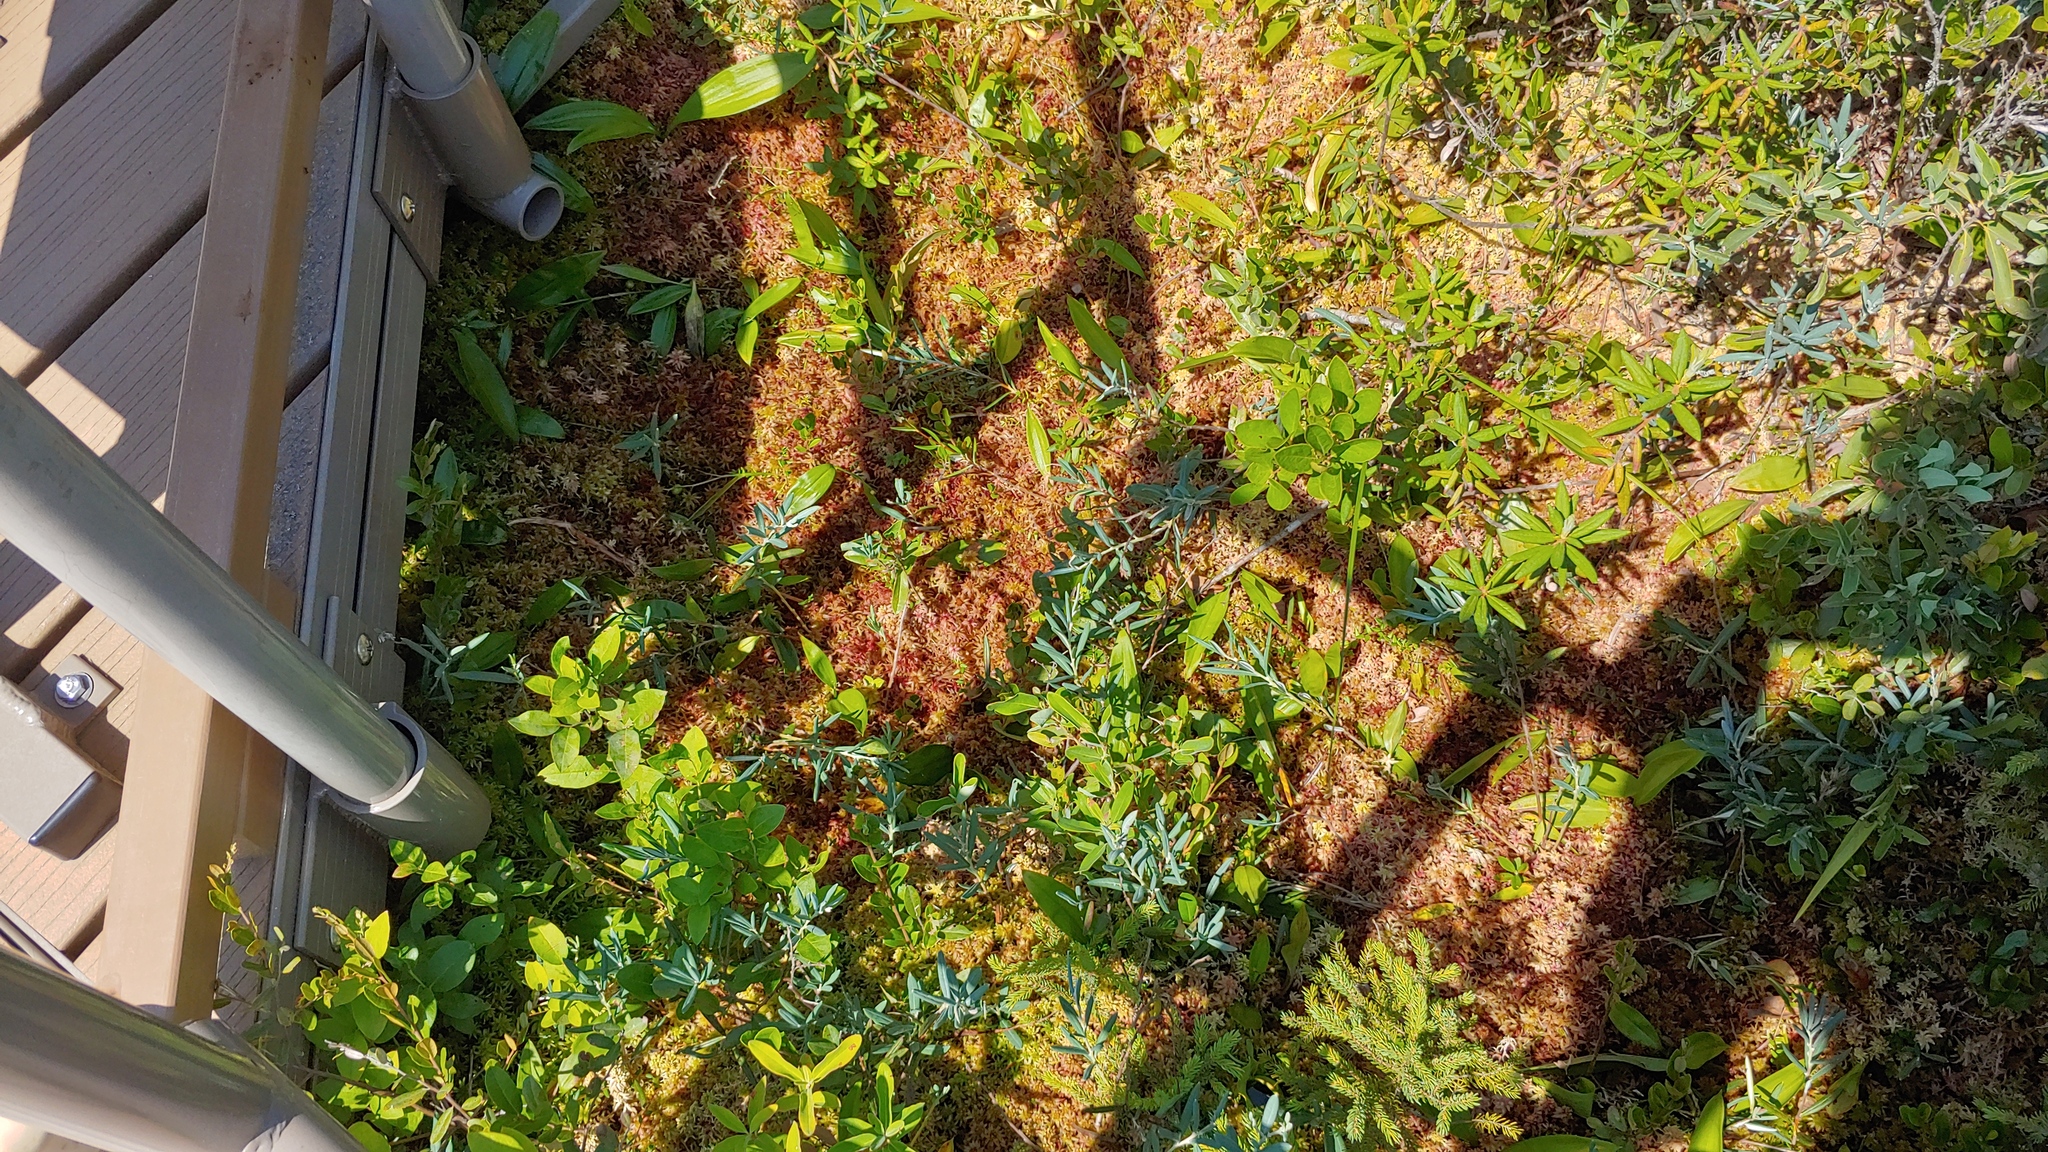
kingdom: Plantae
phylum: Tracheophyta
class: Magnoliopsida
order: Ericales
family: Ericaceae
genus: Andromeda
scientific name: Andromeda polifolia
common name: Bog-rosemary
